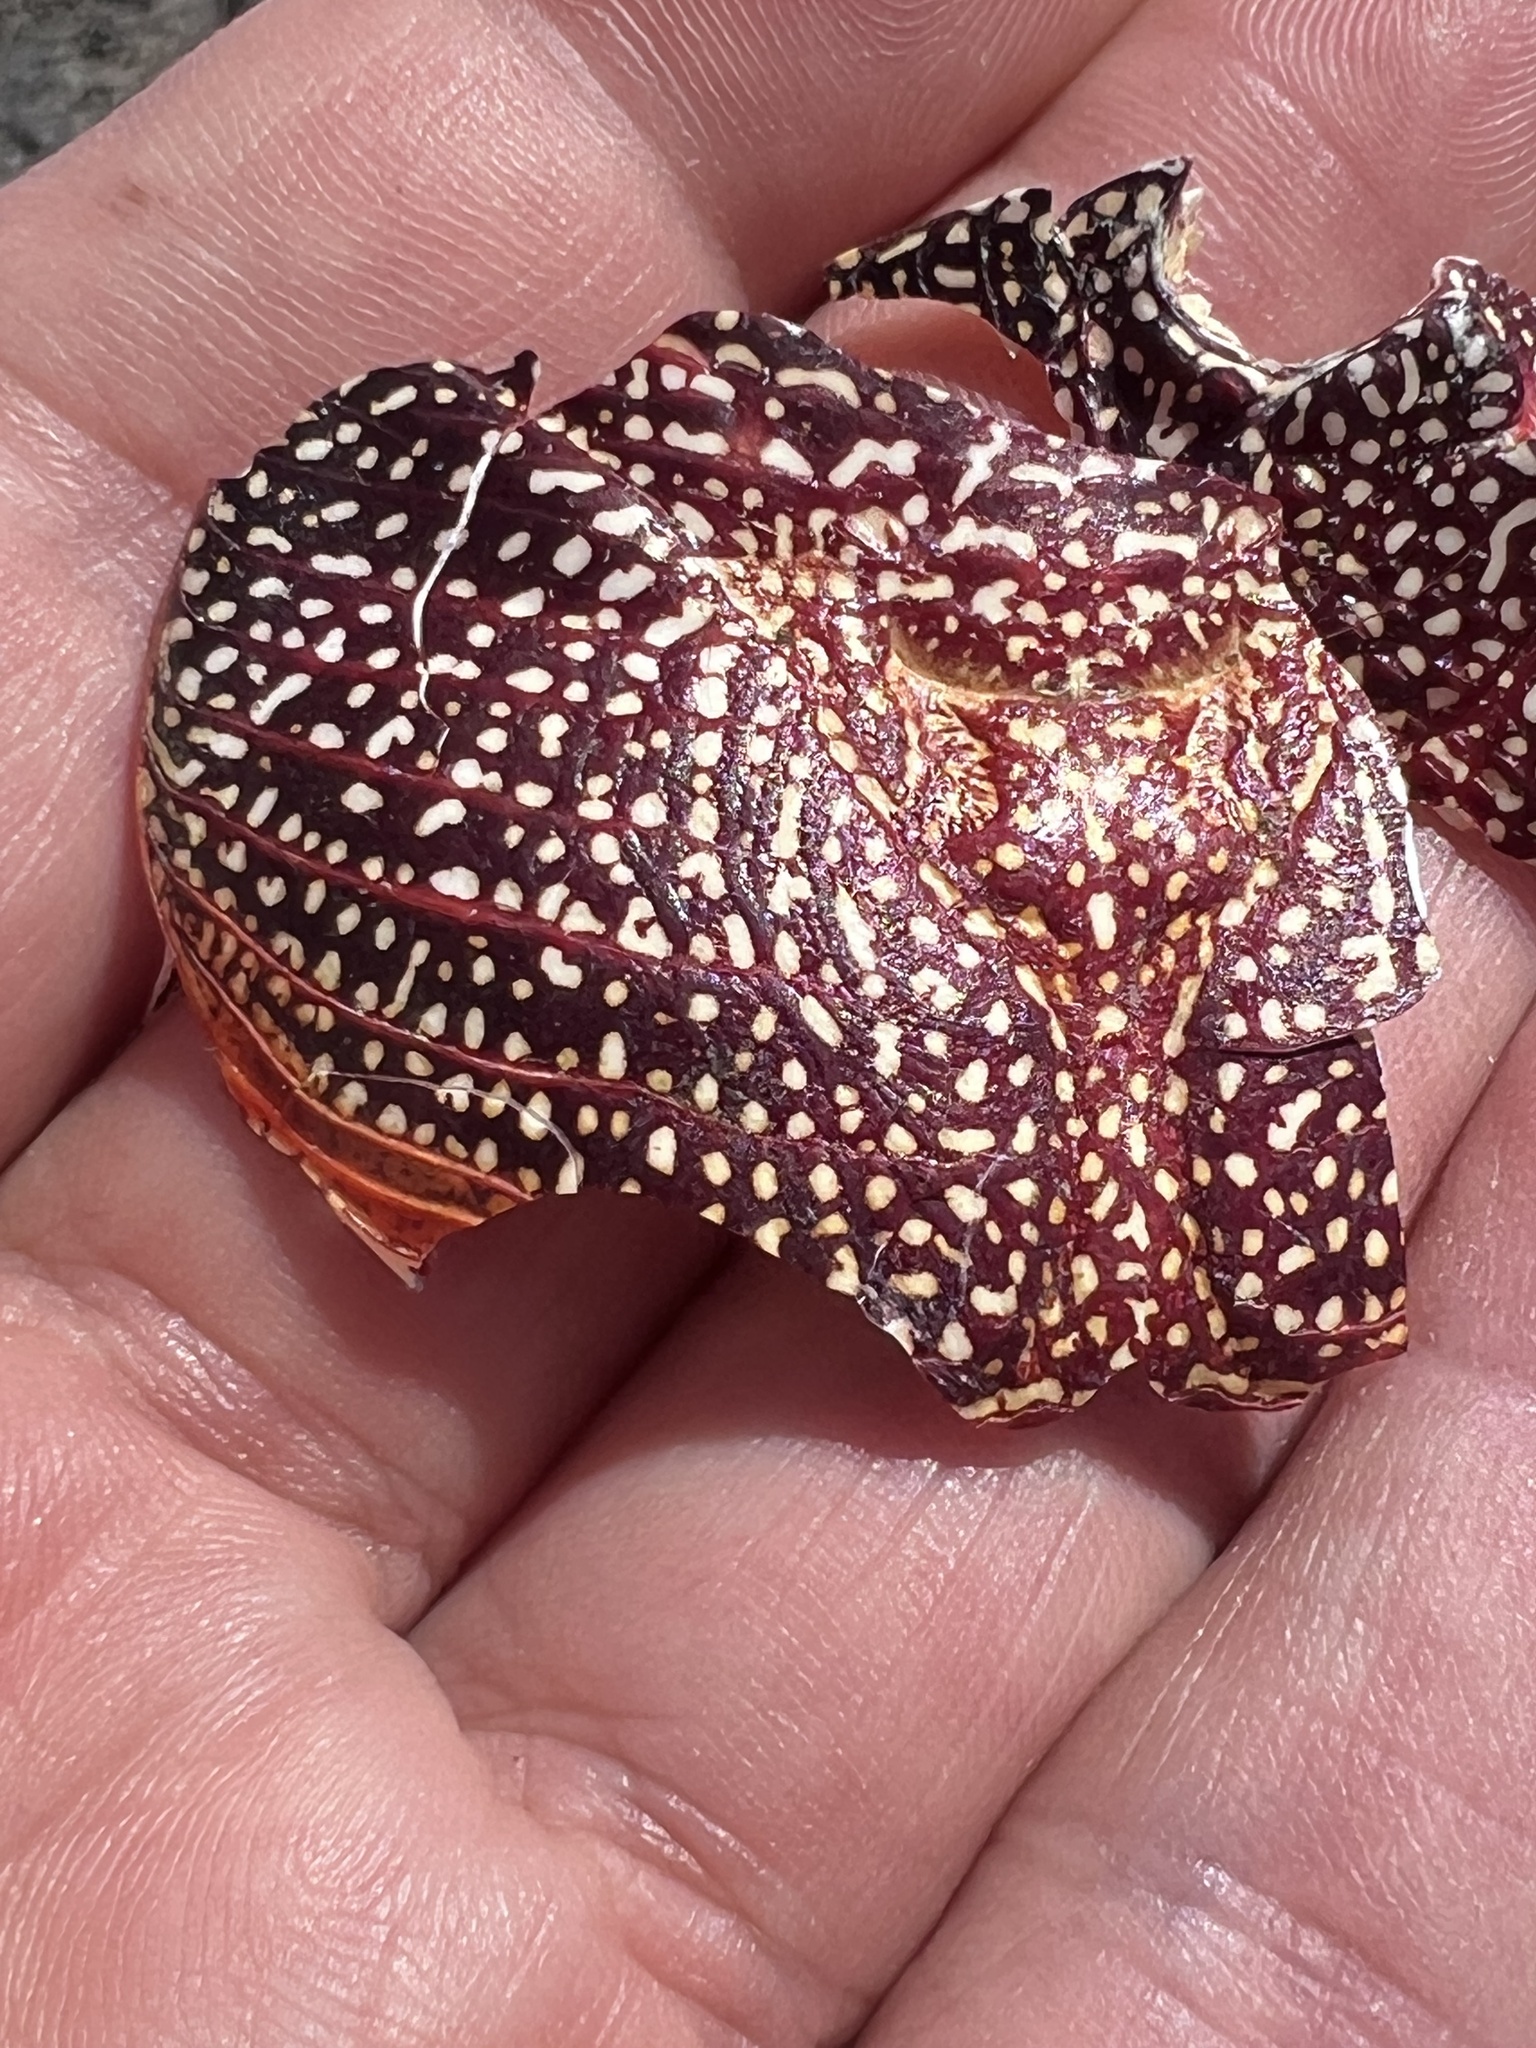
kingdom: Animalia
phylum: Arthropoda
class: Malacostraca
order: Decapoda
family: Grapsidae
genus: Grapsus
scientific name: Grapsus grapsus
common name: Sally lightfoot
